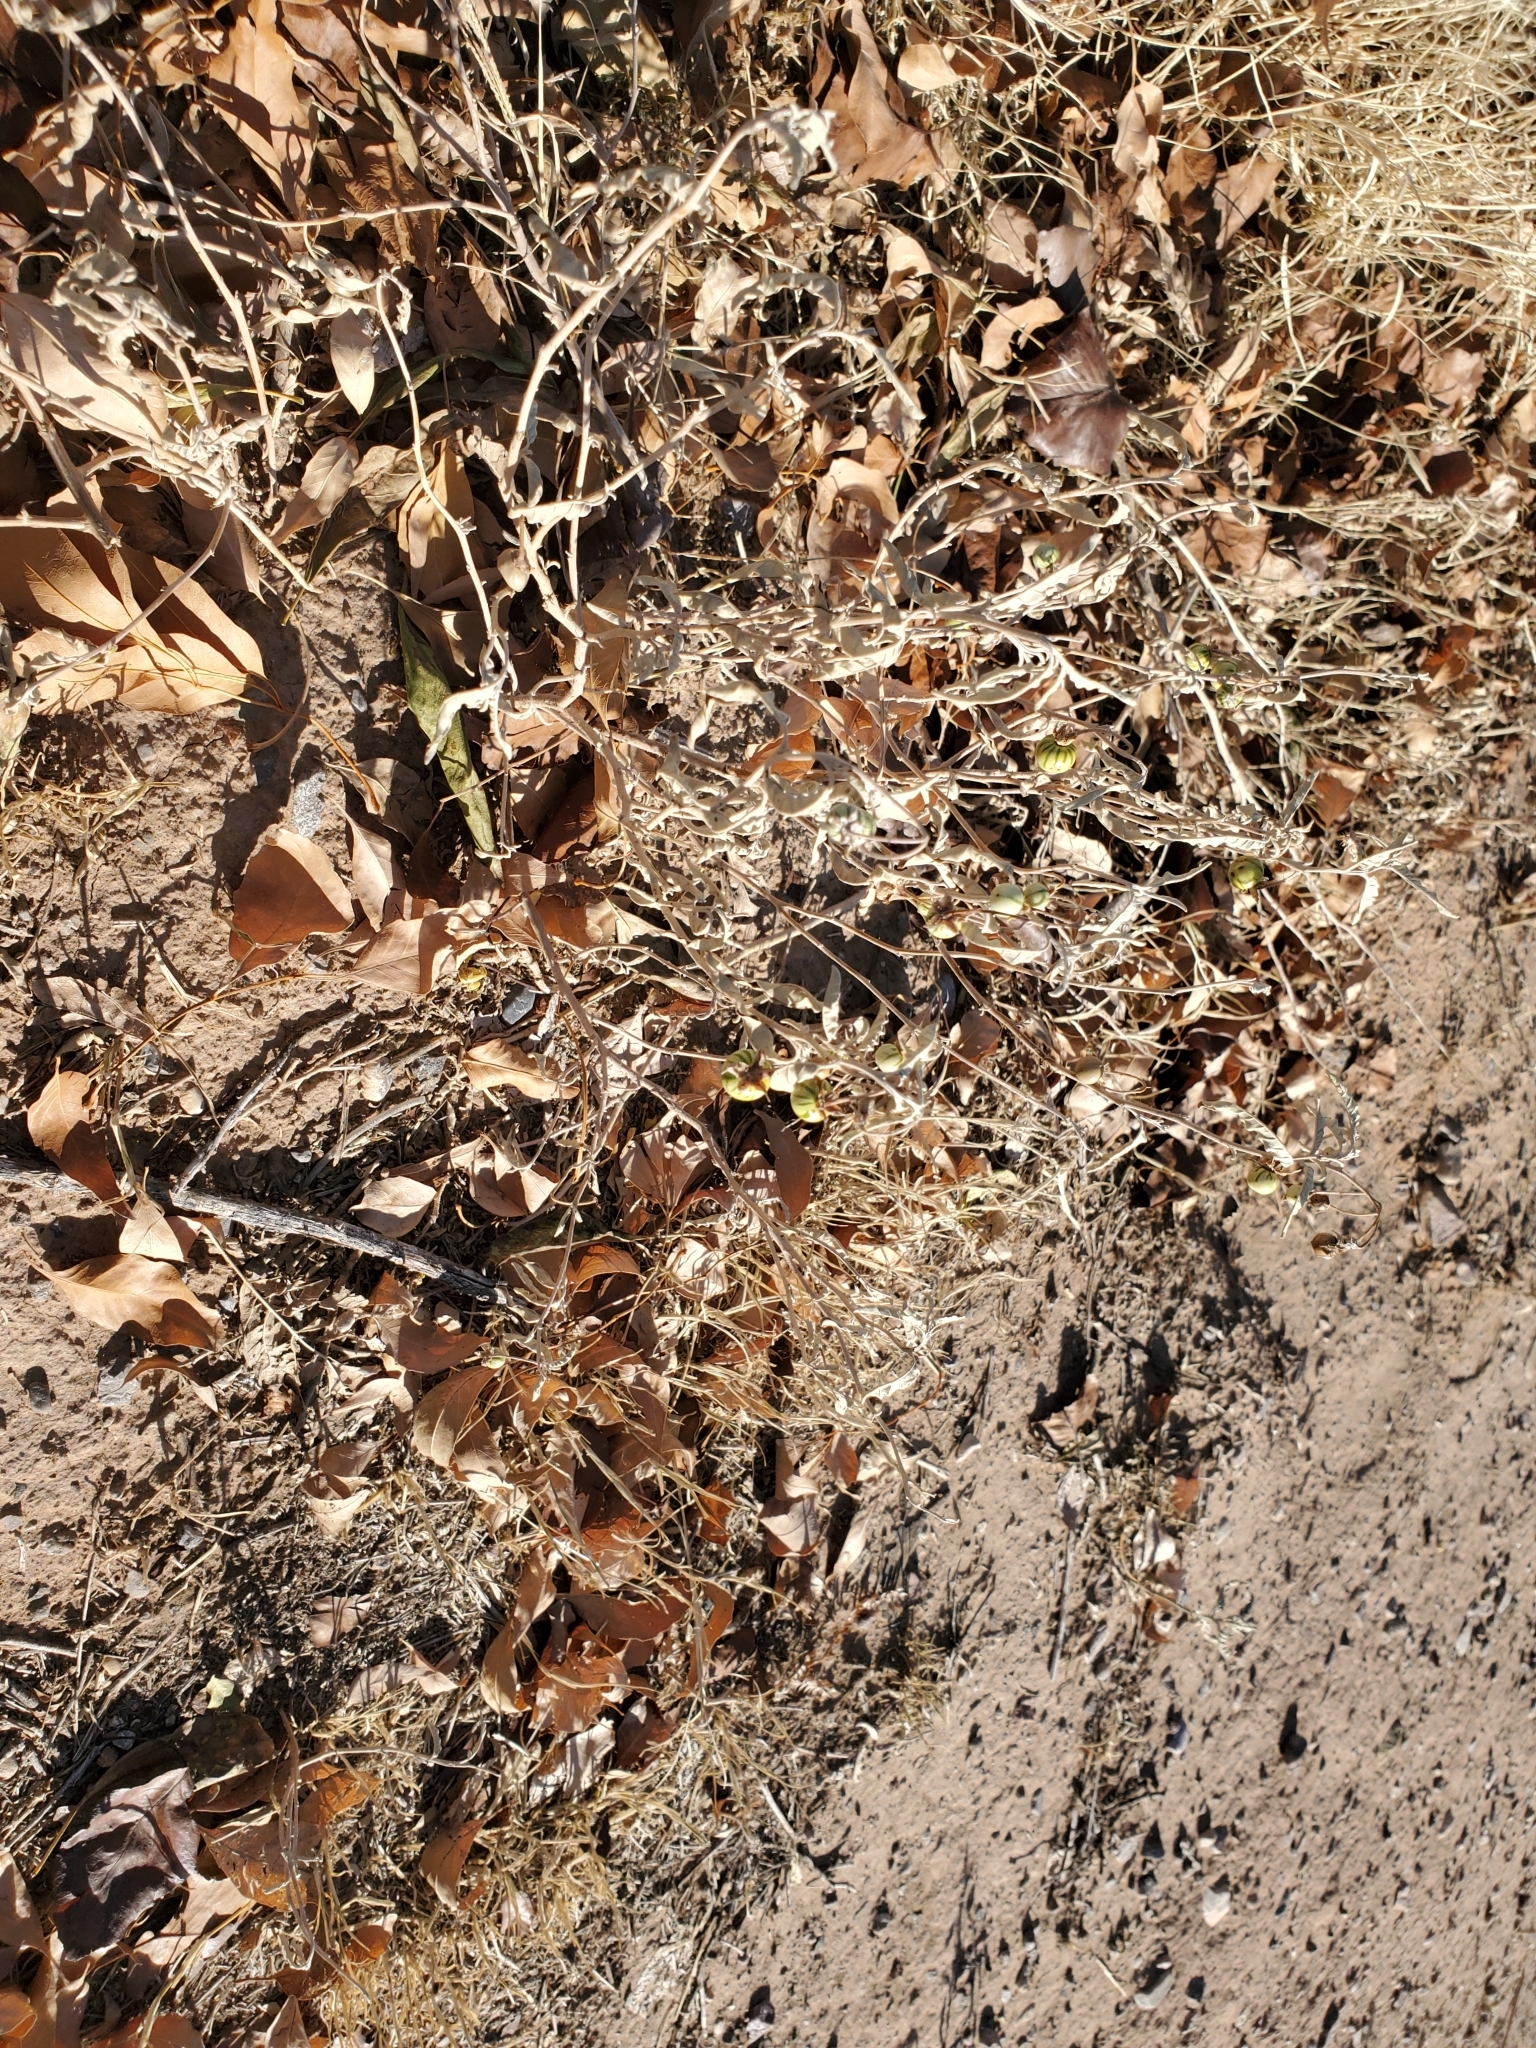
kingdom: Plantae
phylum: Tracheophyta
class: Magnoliopsida
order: Solanales
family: Solanaceae
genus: Solanum
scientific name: Solanum elaeagnifolium
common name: Silverleaf nightshade
